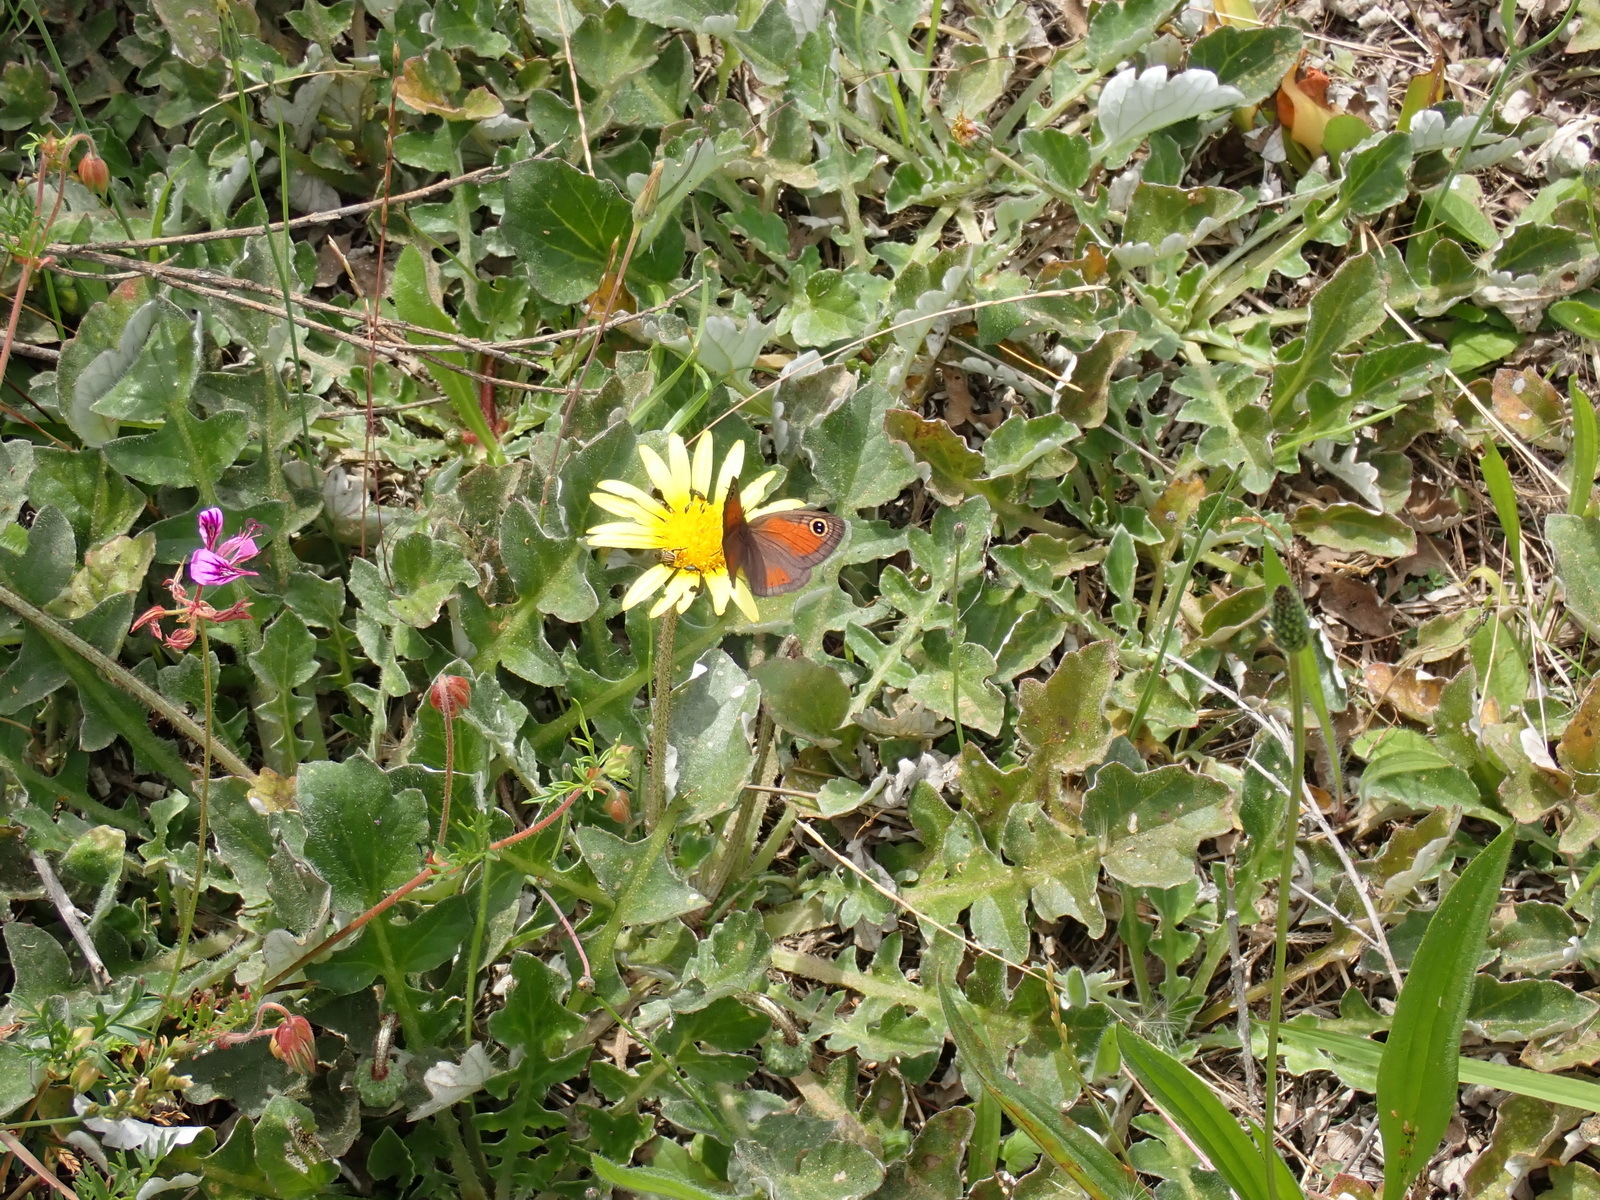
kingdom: Plantae
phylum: Tracheophyta
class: Magnoliopsida
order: Asterales
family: Asteraceae
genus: Arctotheca
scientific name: Arctotheca prostrata
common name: Capeweed
